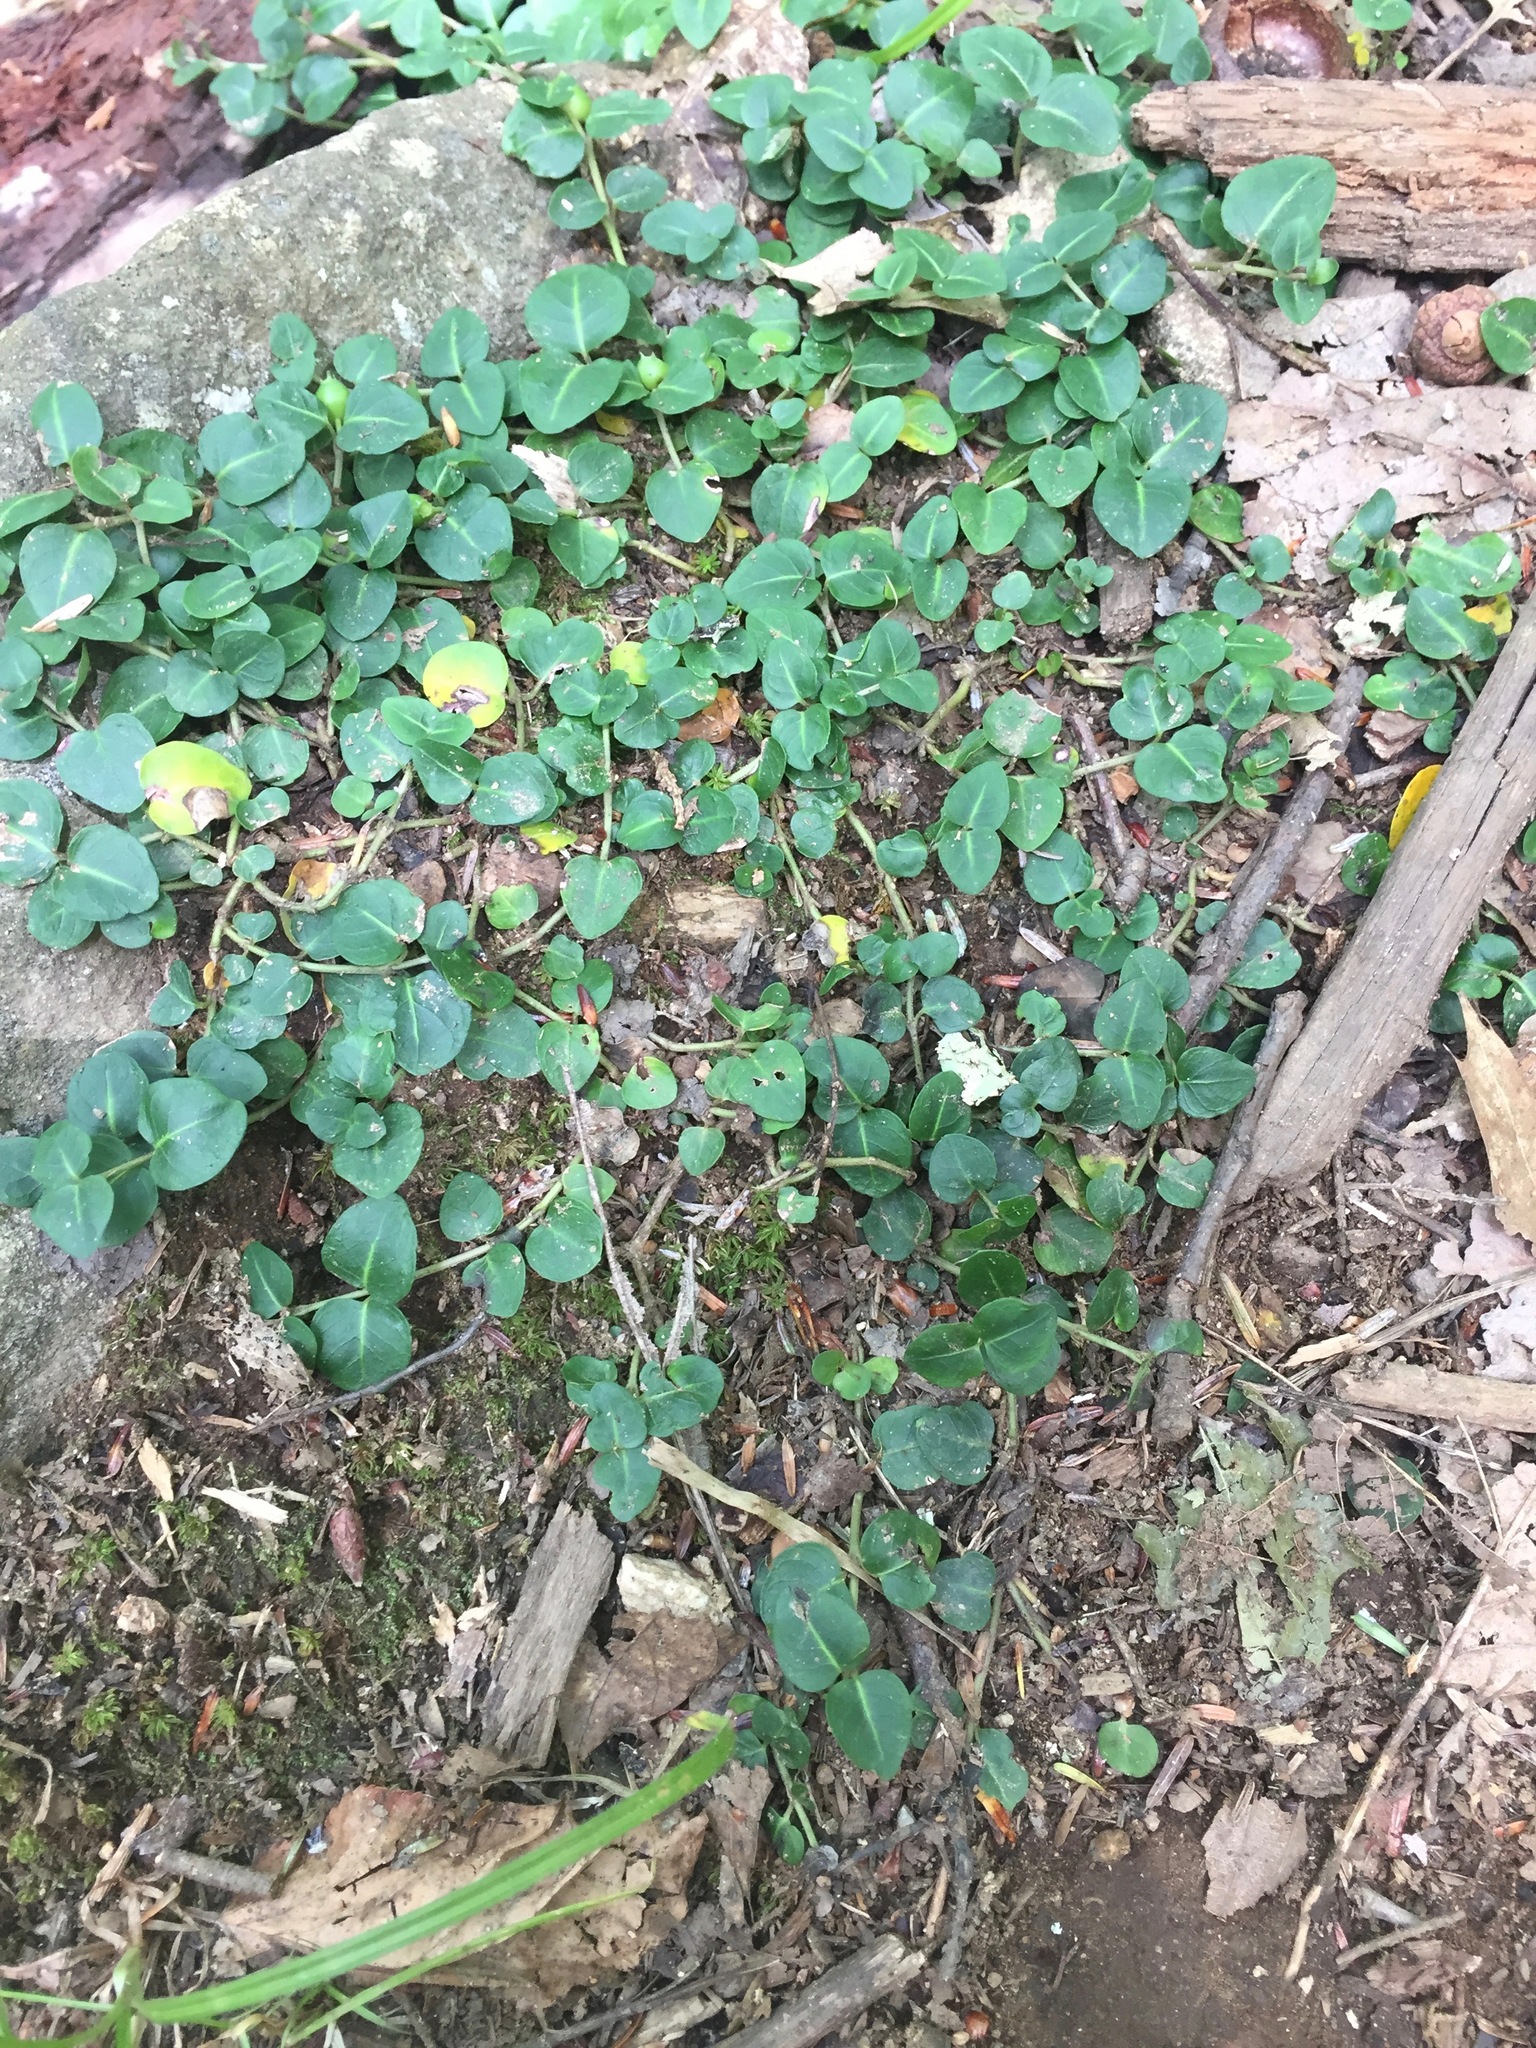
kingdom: Plantae
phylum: Tracheophyta
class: Magnoliopsida
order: Gentianales
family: Rubiaceae
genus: Mitchella
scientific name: Mitchella repens
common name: Partridge-berry
